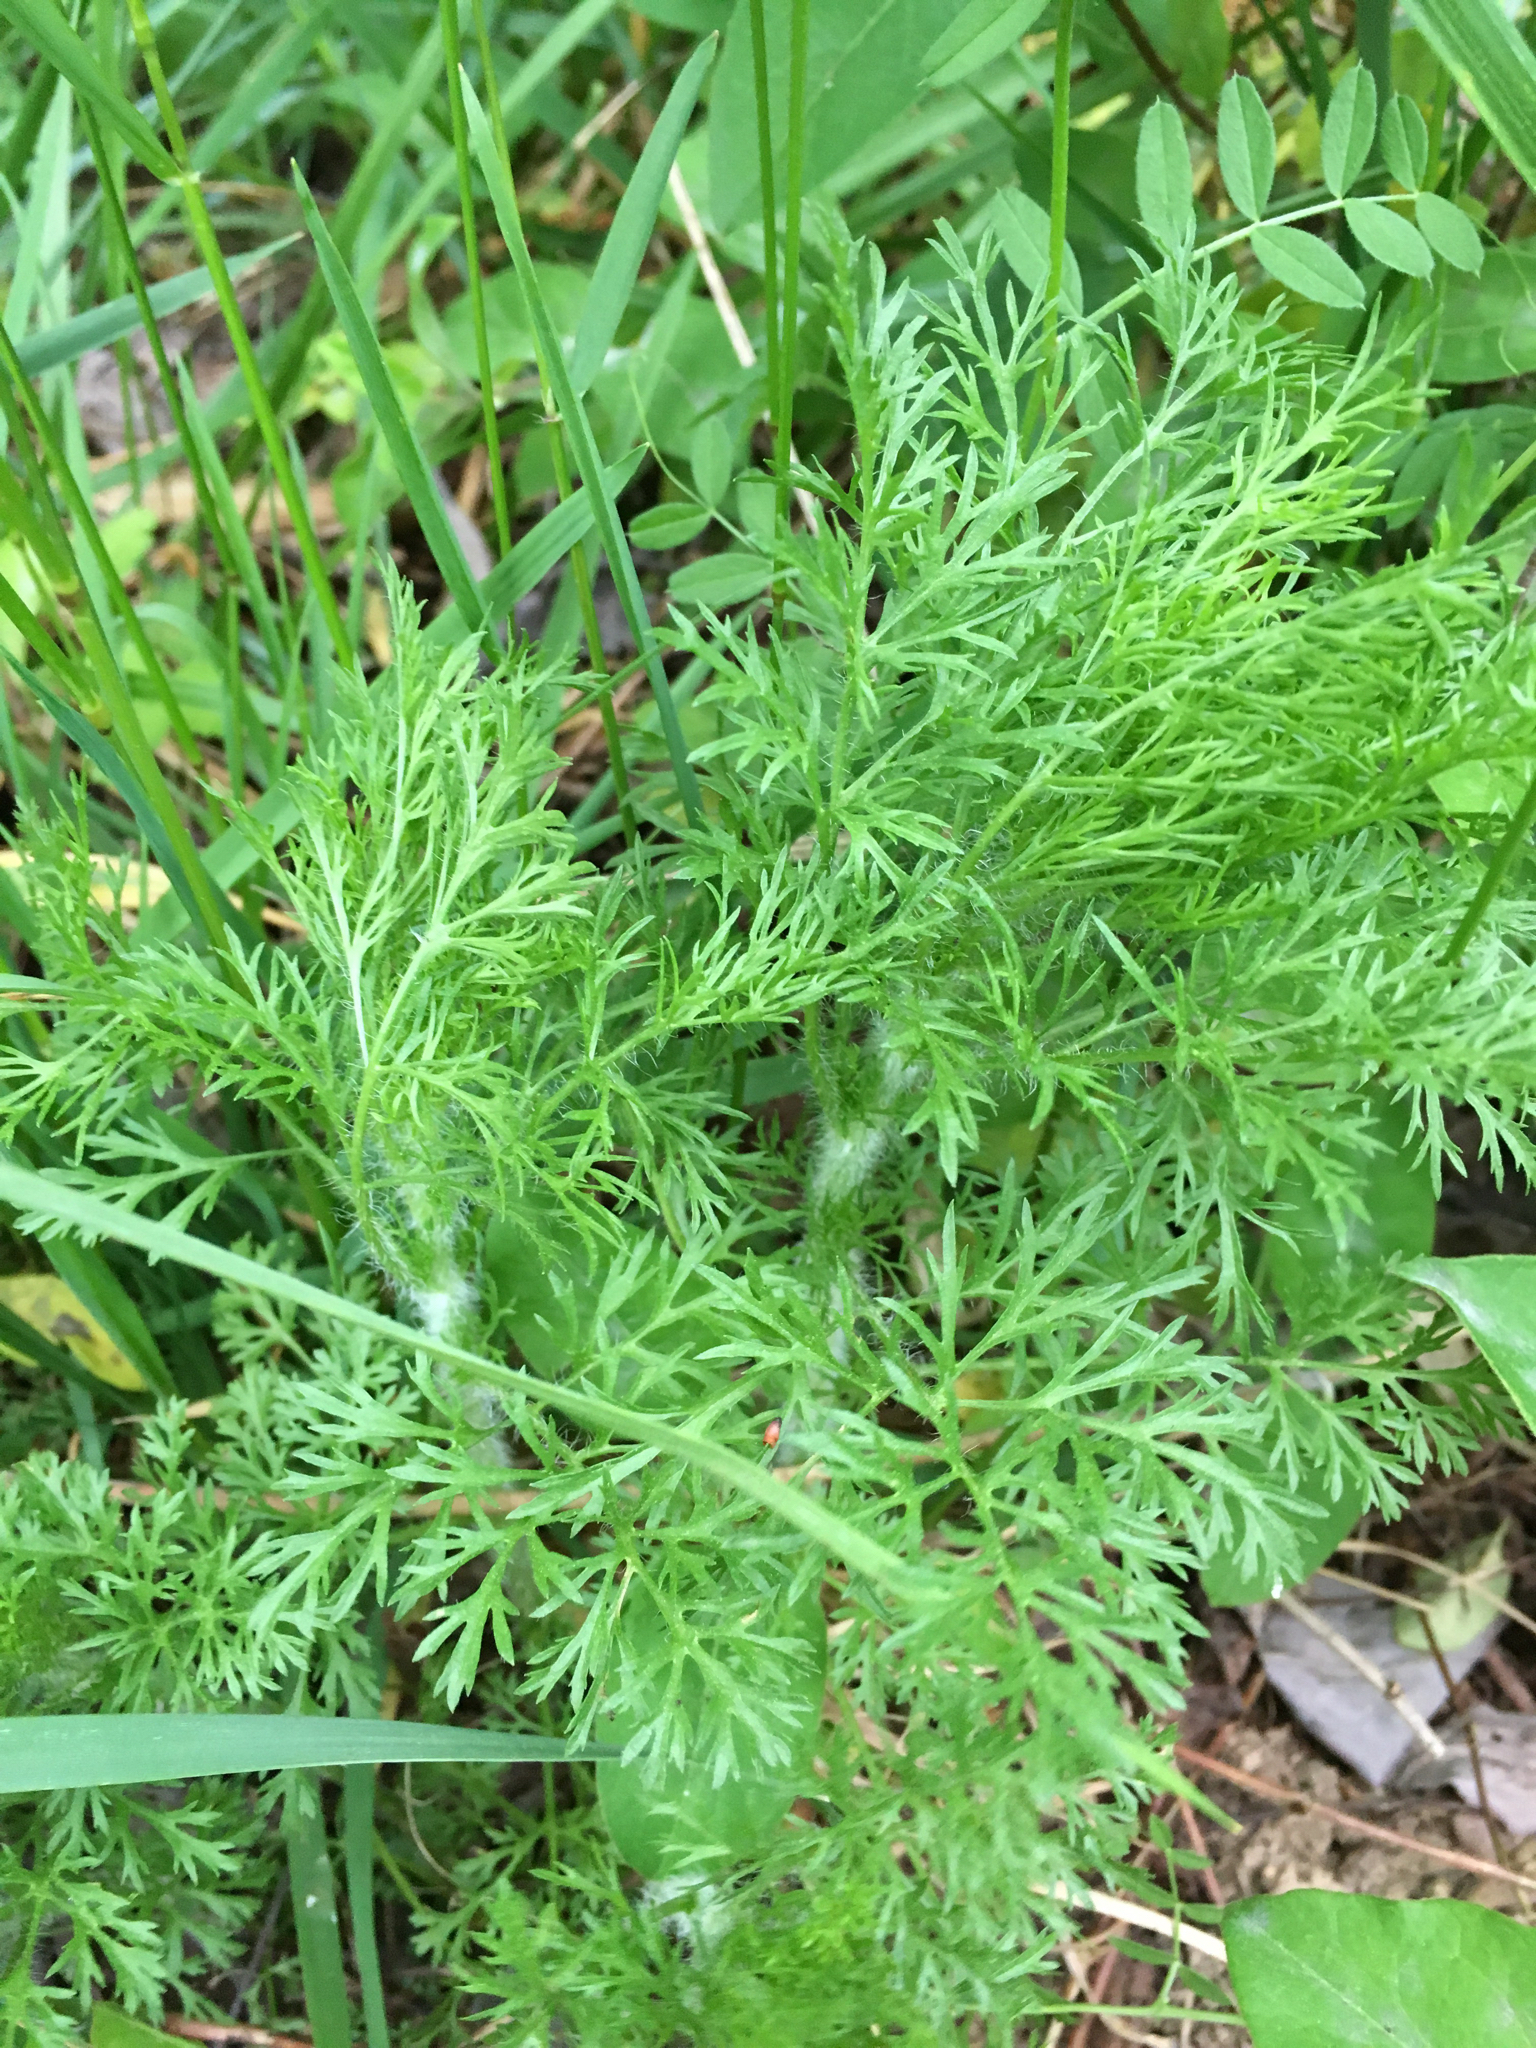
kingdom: Plantae
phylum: Tracheophyta
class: Magnoliopsida
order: Asterales
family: Asteraceae
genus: Eupatorium
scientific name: Eupatorium capillifolium
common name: Dog-fennel
